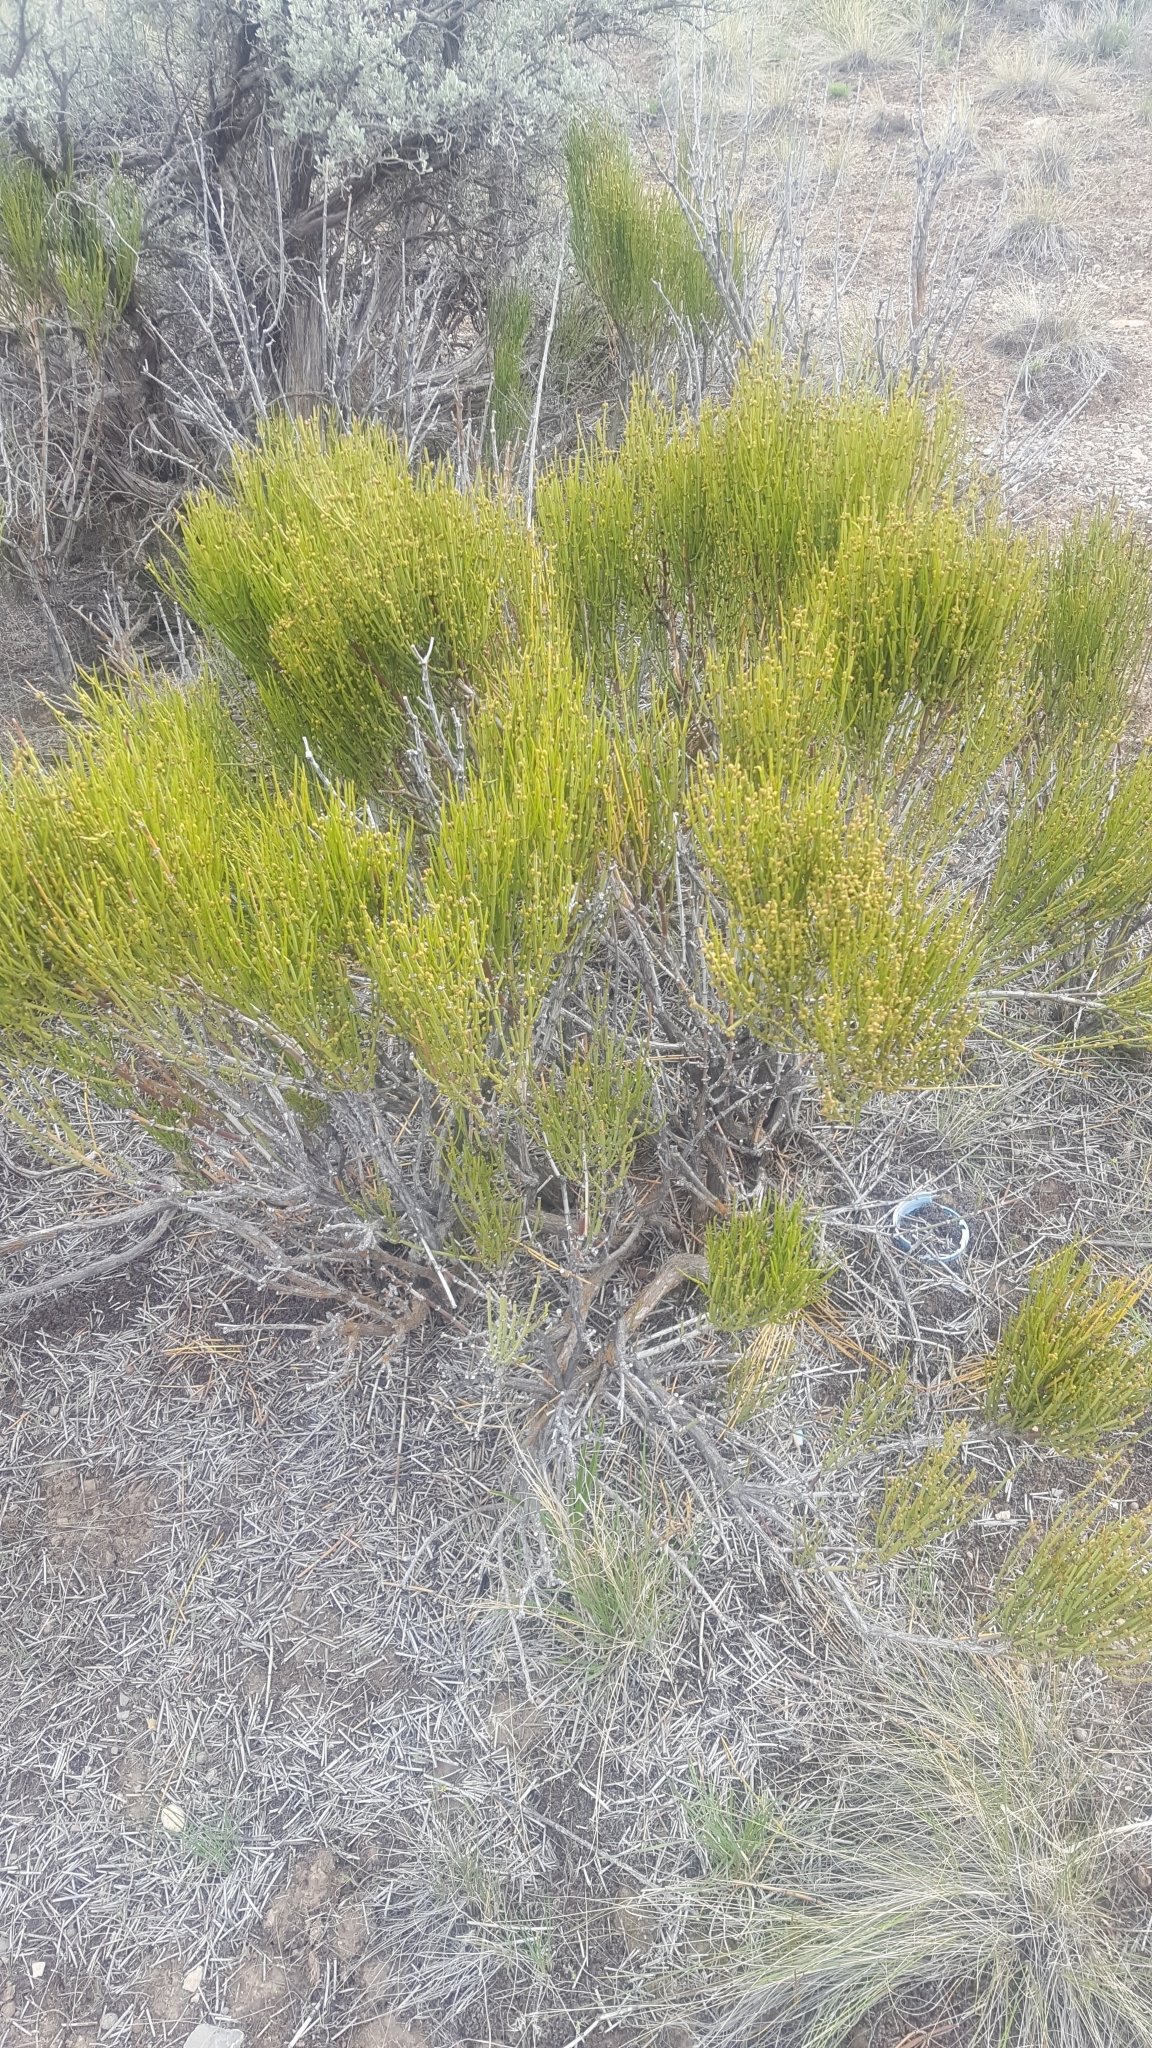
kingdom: Plantae
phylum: Tracheophyta
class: Gnetopsida
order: Ephedrales
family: Ephedraceae
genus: Ephedra
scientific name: Ephedra viridis
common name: Green ephedra
